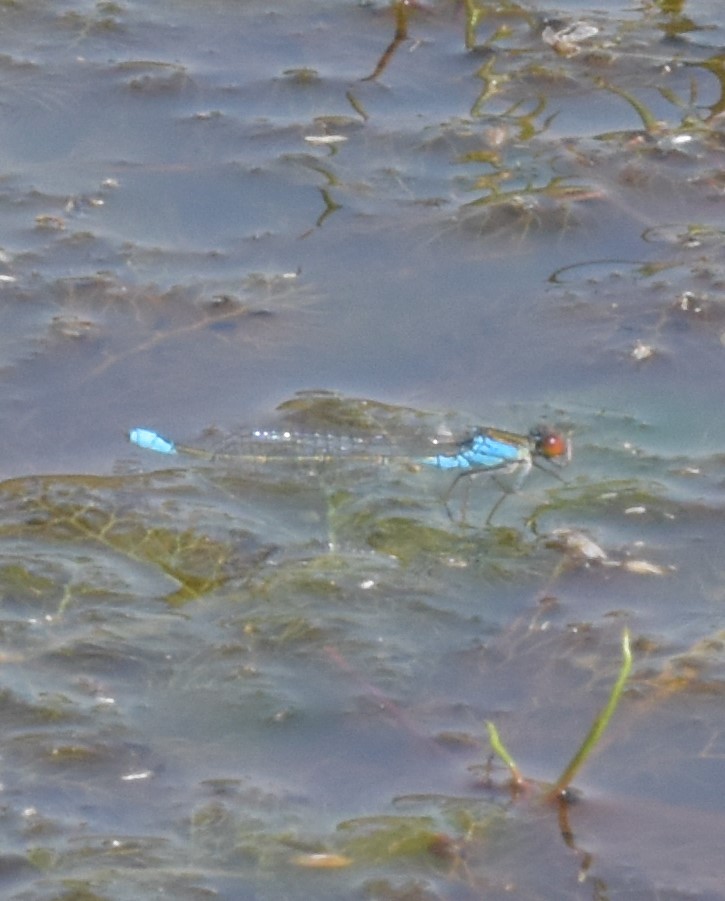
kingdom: Animalia
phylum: Arthropoda
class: Insecta
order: Odonata
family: Coenagrionidae
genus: Erythromma
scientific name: Erythromma viridulum
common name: Small red-eyed damselfly
